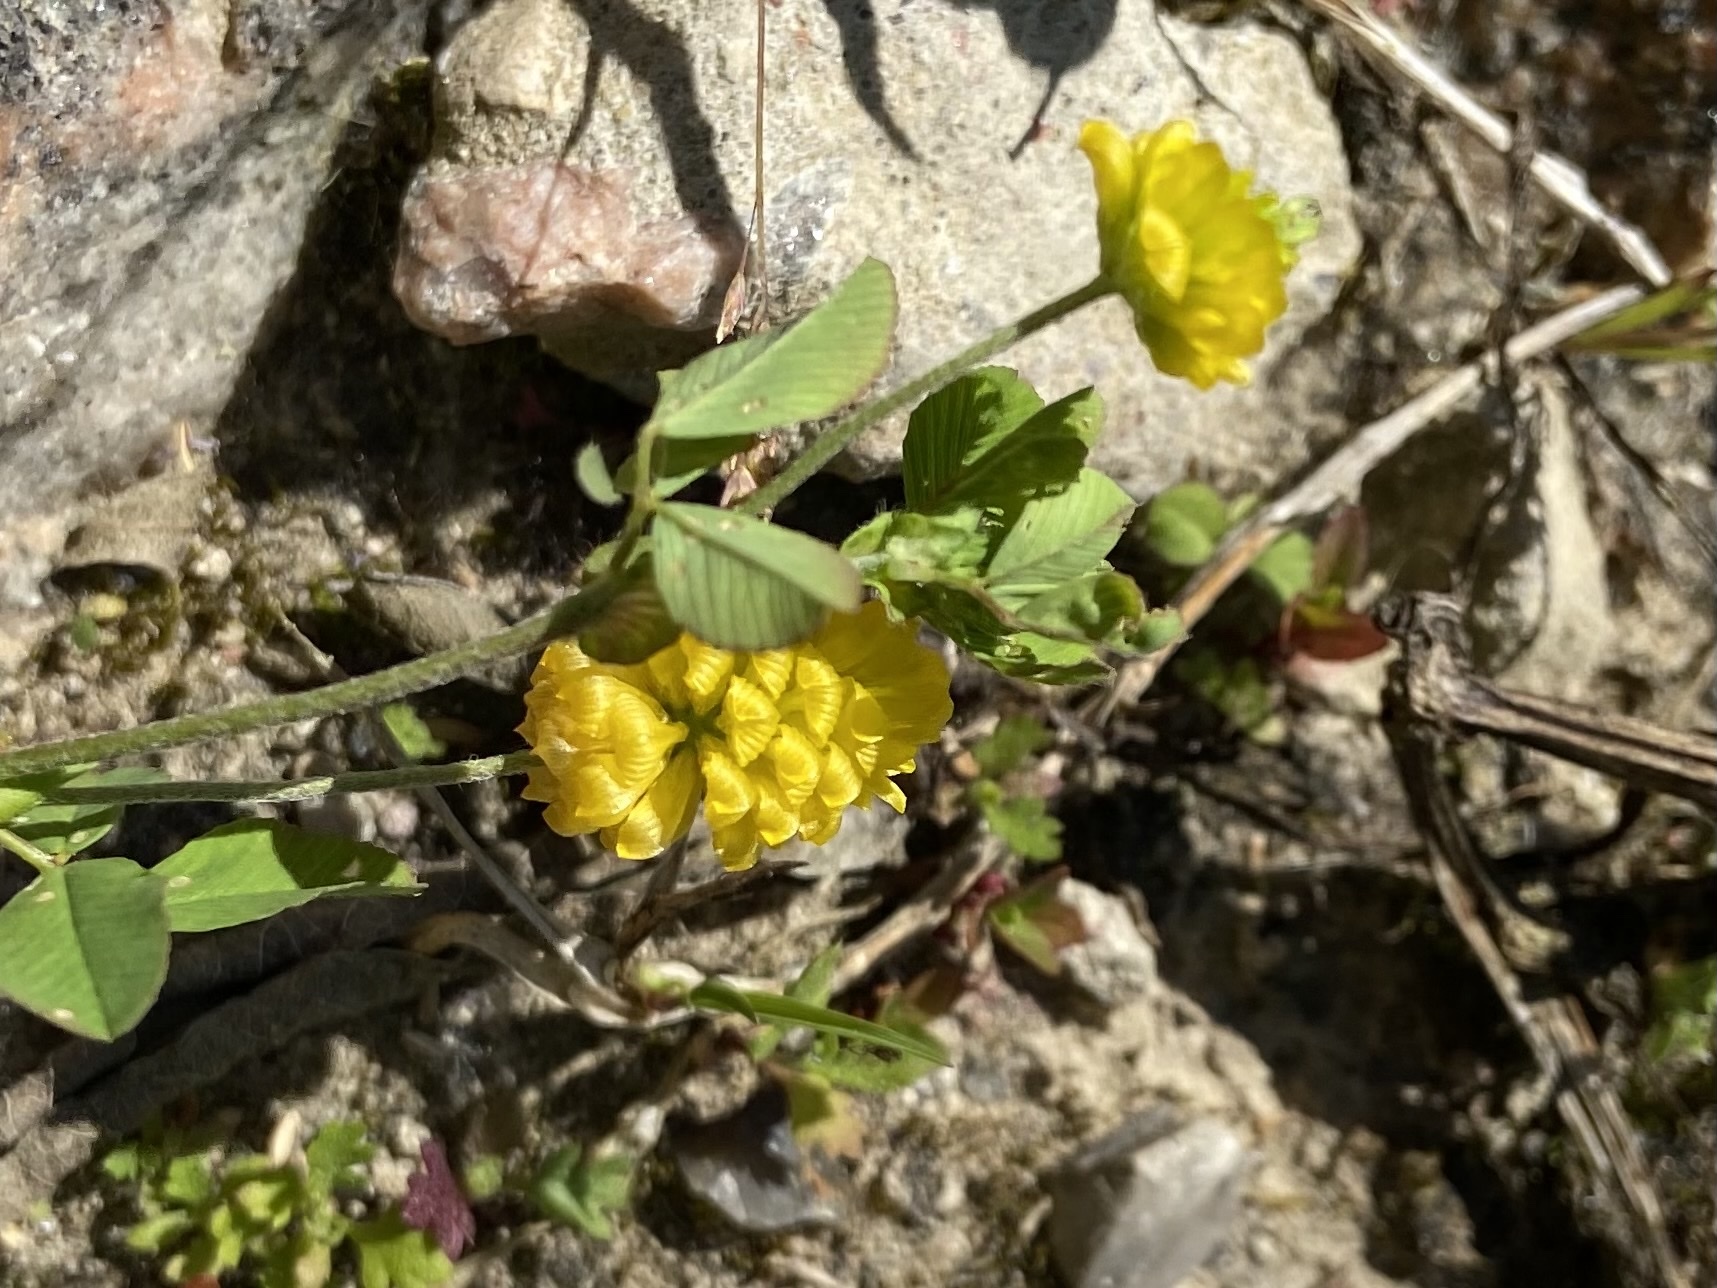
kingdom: Plantae
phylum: Tracheophyta
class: Magnoliopsida
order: Fabales
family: Fabaceae
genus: Trifolium
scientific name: Trifolium campestre
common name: Field clover
